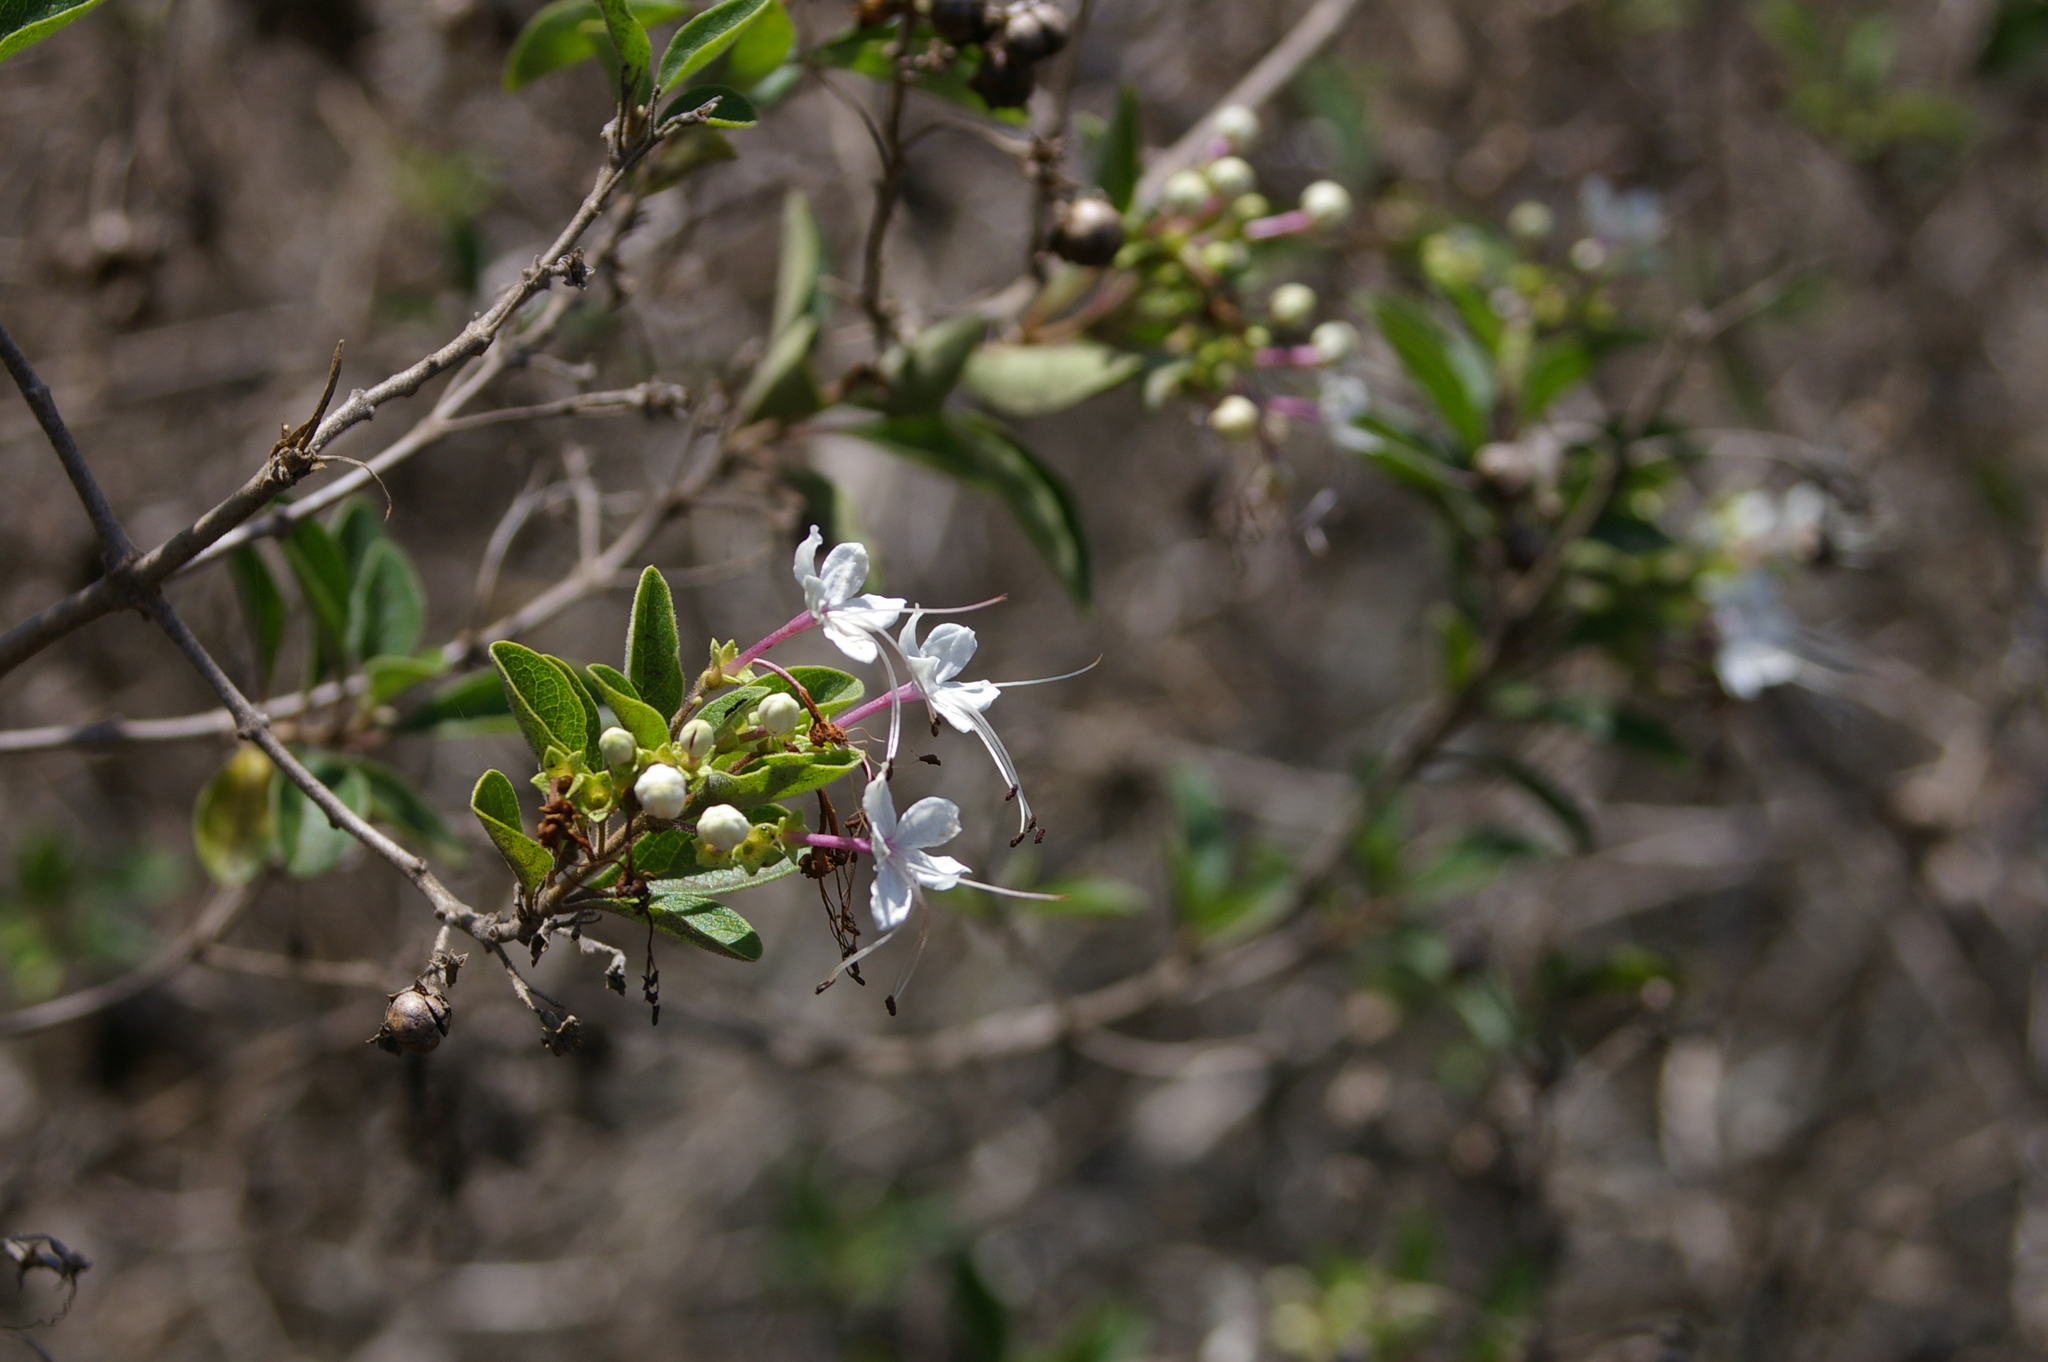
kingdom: Plantae
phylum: Tracheophyta
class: Magnoliopsida
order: Lamiales
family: Lamiaceae
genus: Volkameria
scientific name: Volkameria mollis
